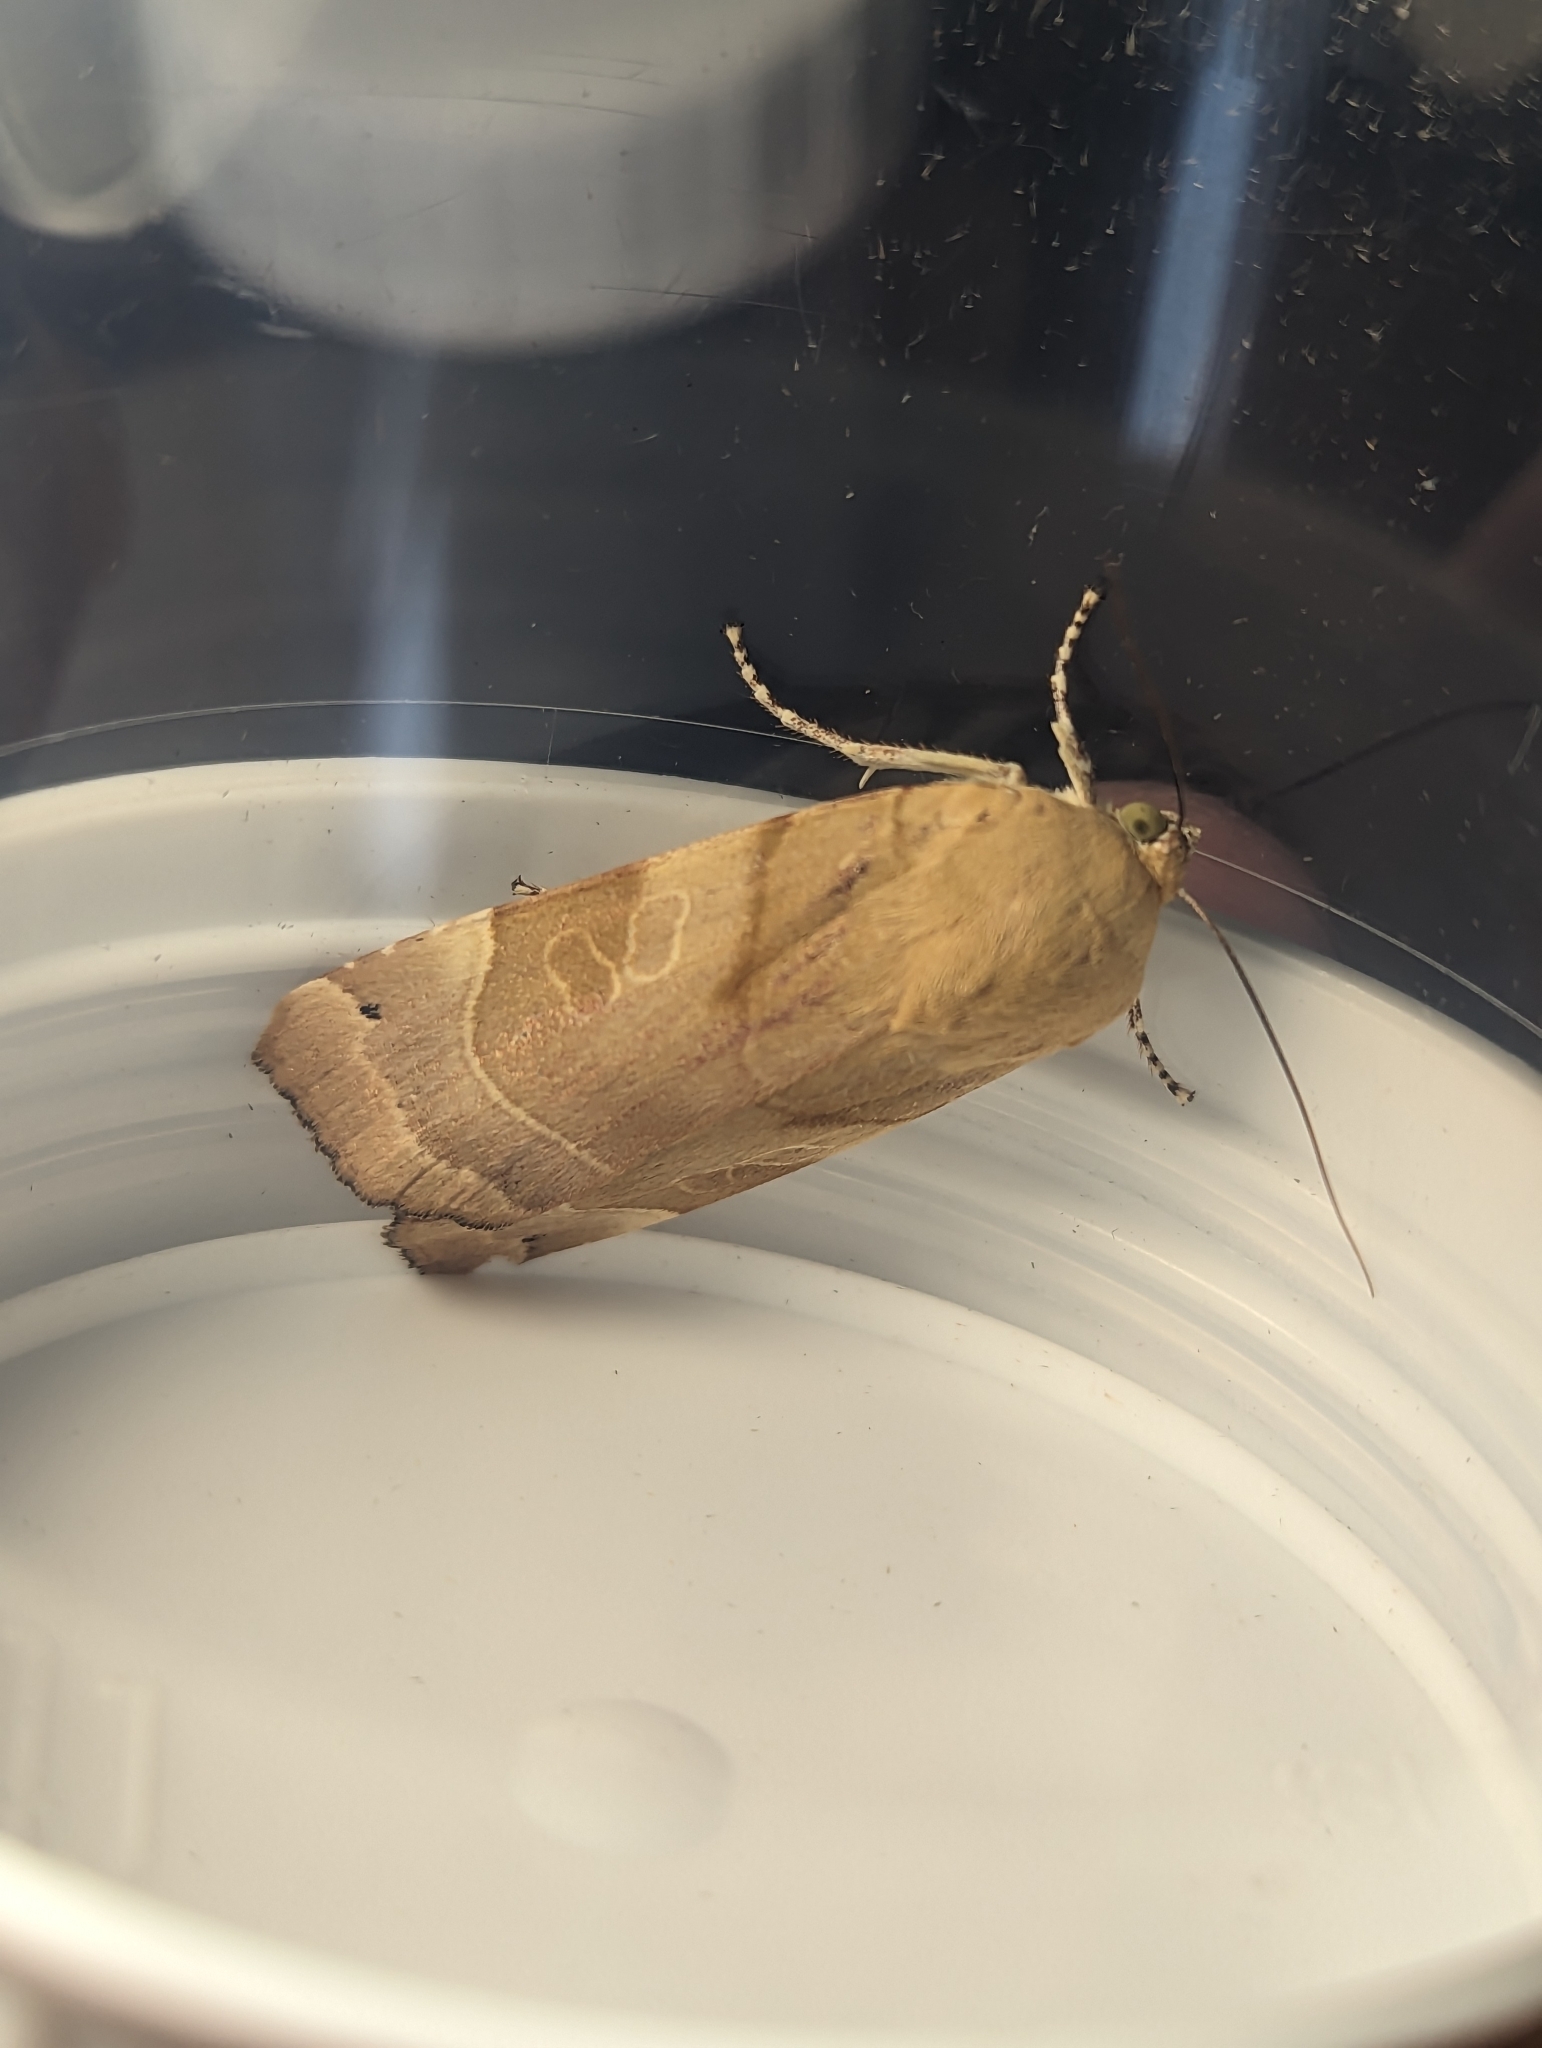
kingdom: Animalia
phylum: Arthropoda
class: Insecta
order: Lepidoptera
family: Noctuidae
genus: Noctua
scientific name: Noctua fimbriata
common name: Broad-bordered yellow underwing
